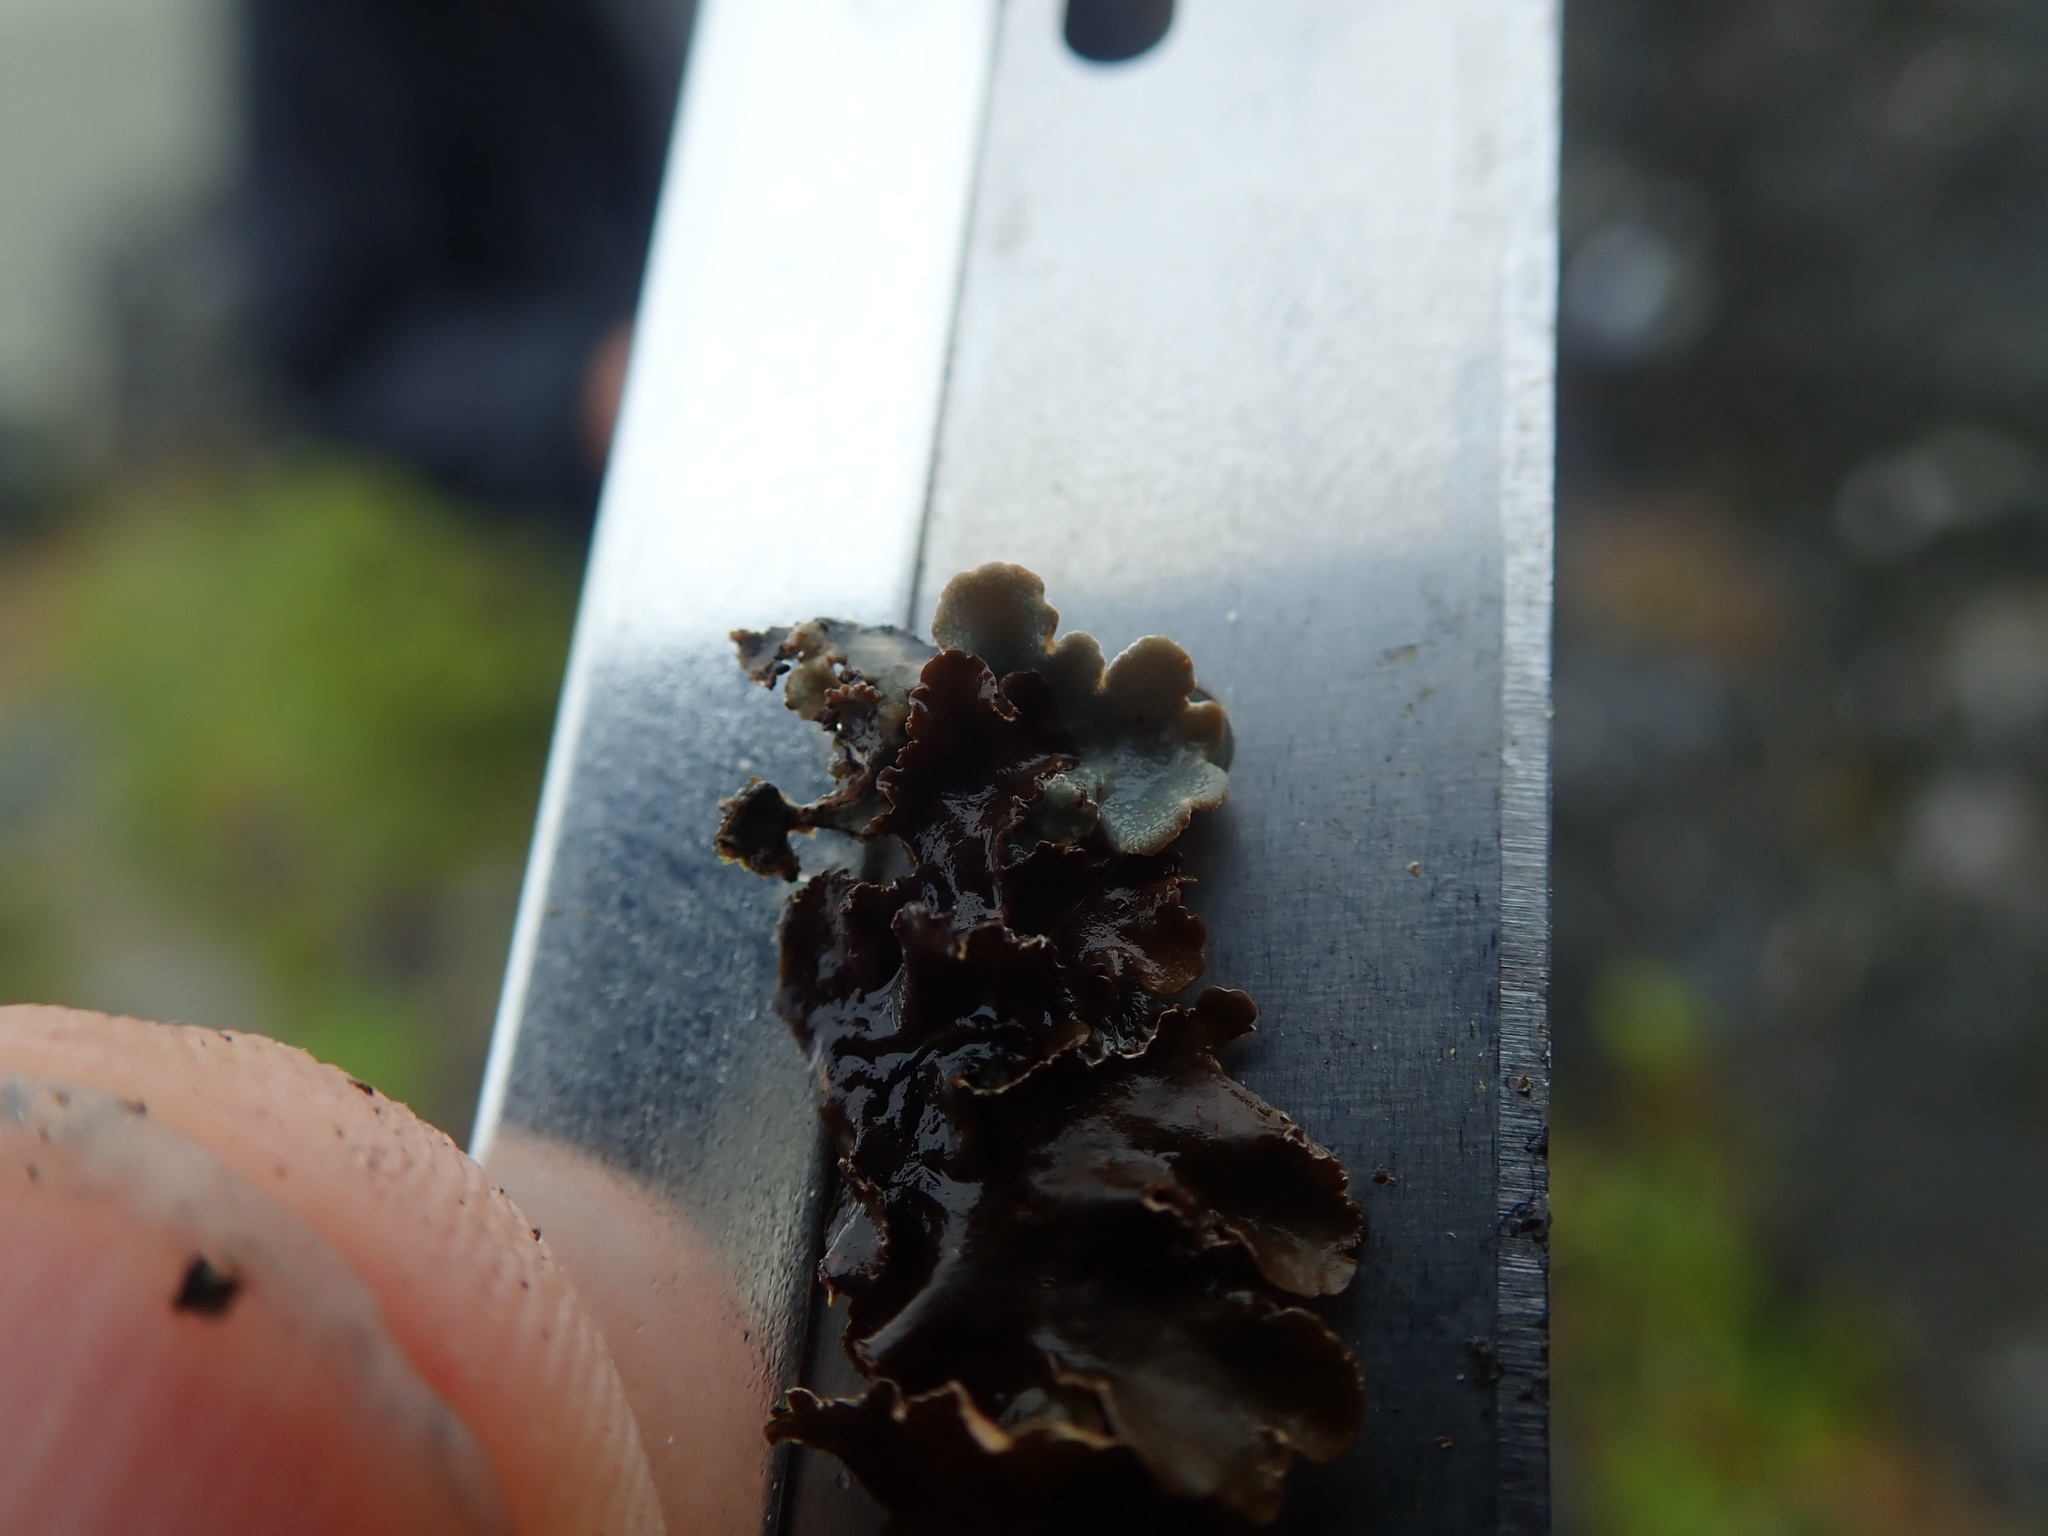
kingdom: Fungi
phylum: Ascomycota
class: Lecanoromycetes
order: Peltigerales
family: Lobariaceae
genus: Lobarina
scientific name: Lobarina scrobiculata
